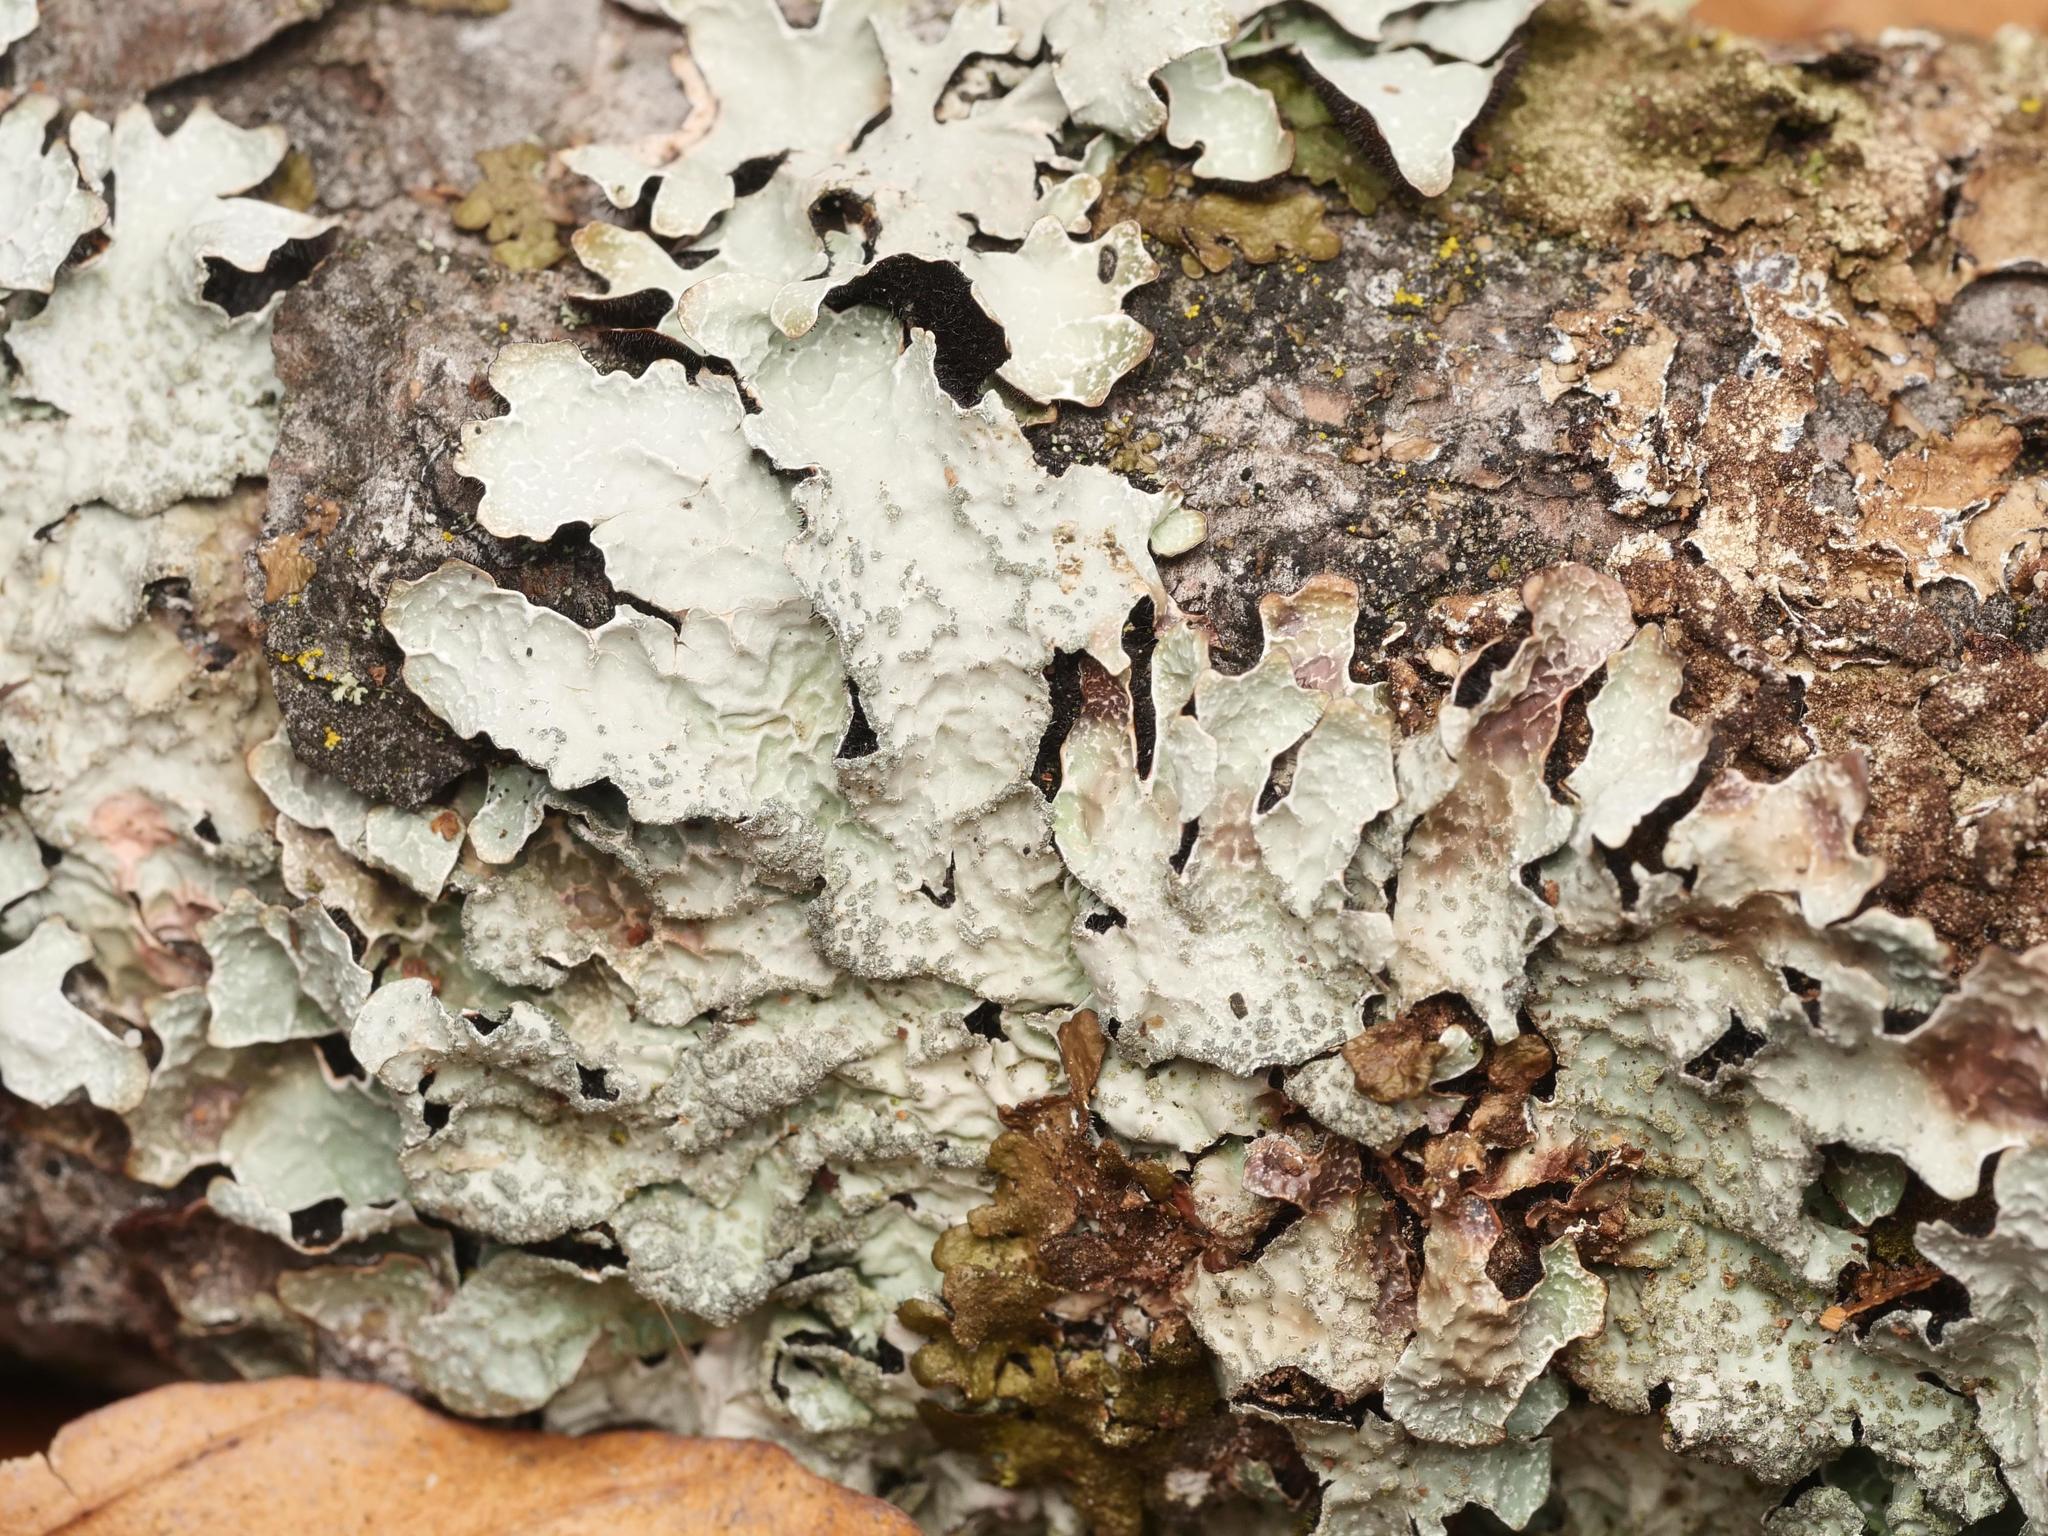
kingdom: Fungi
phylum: Ascomycota
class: Lecanoromycetes
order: Lecanorales
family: Parmeliaceae
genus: Parmelia
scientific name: Parmelia sulcata
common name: Netted shield lichen
